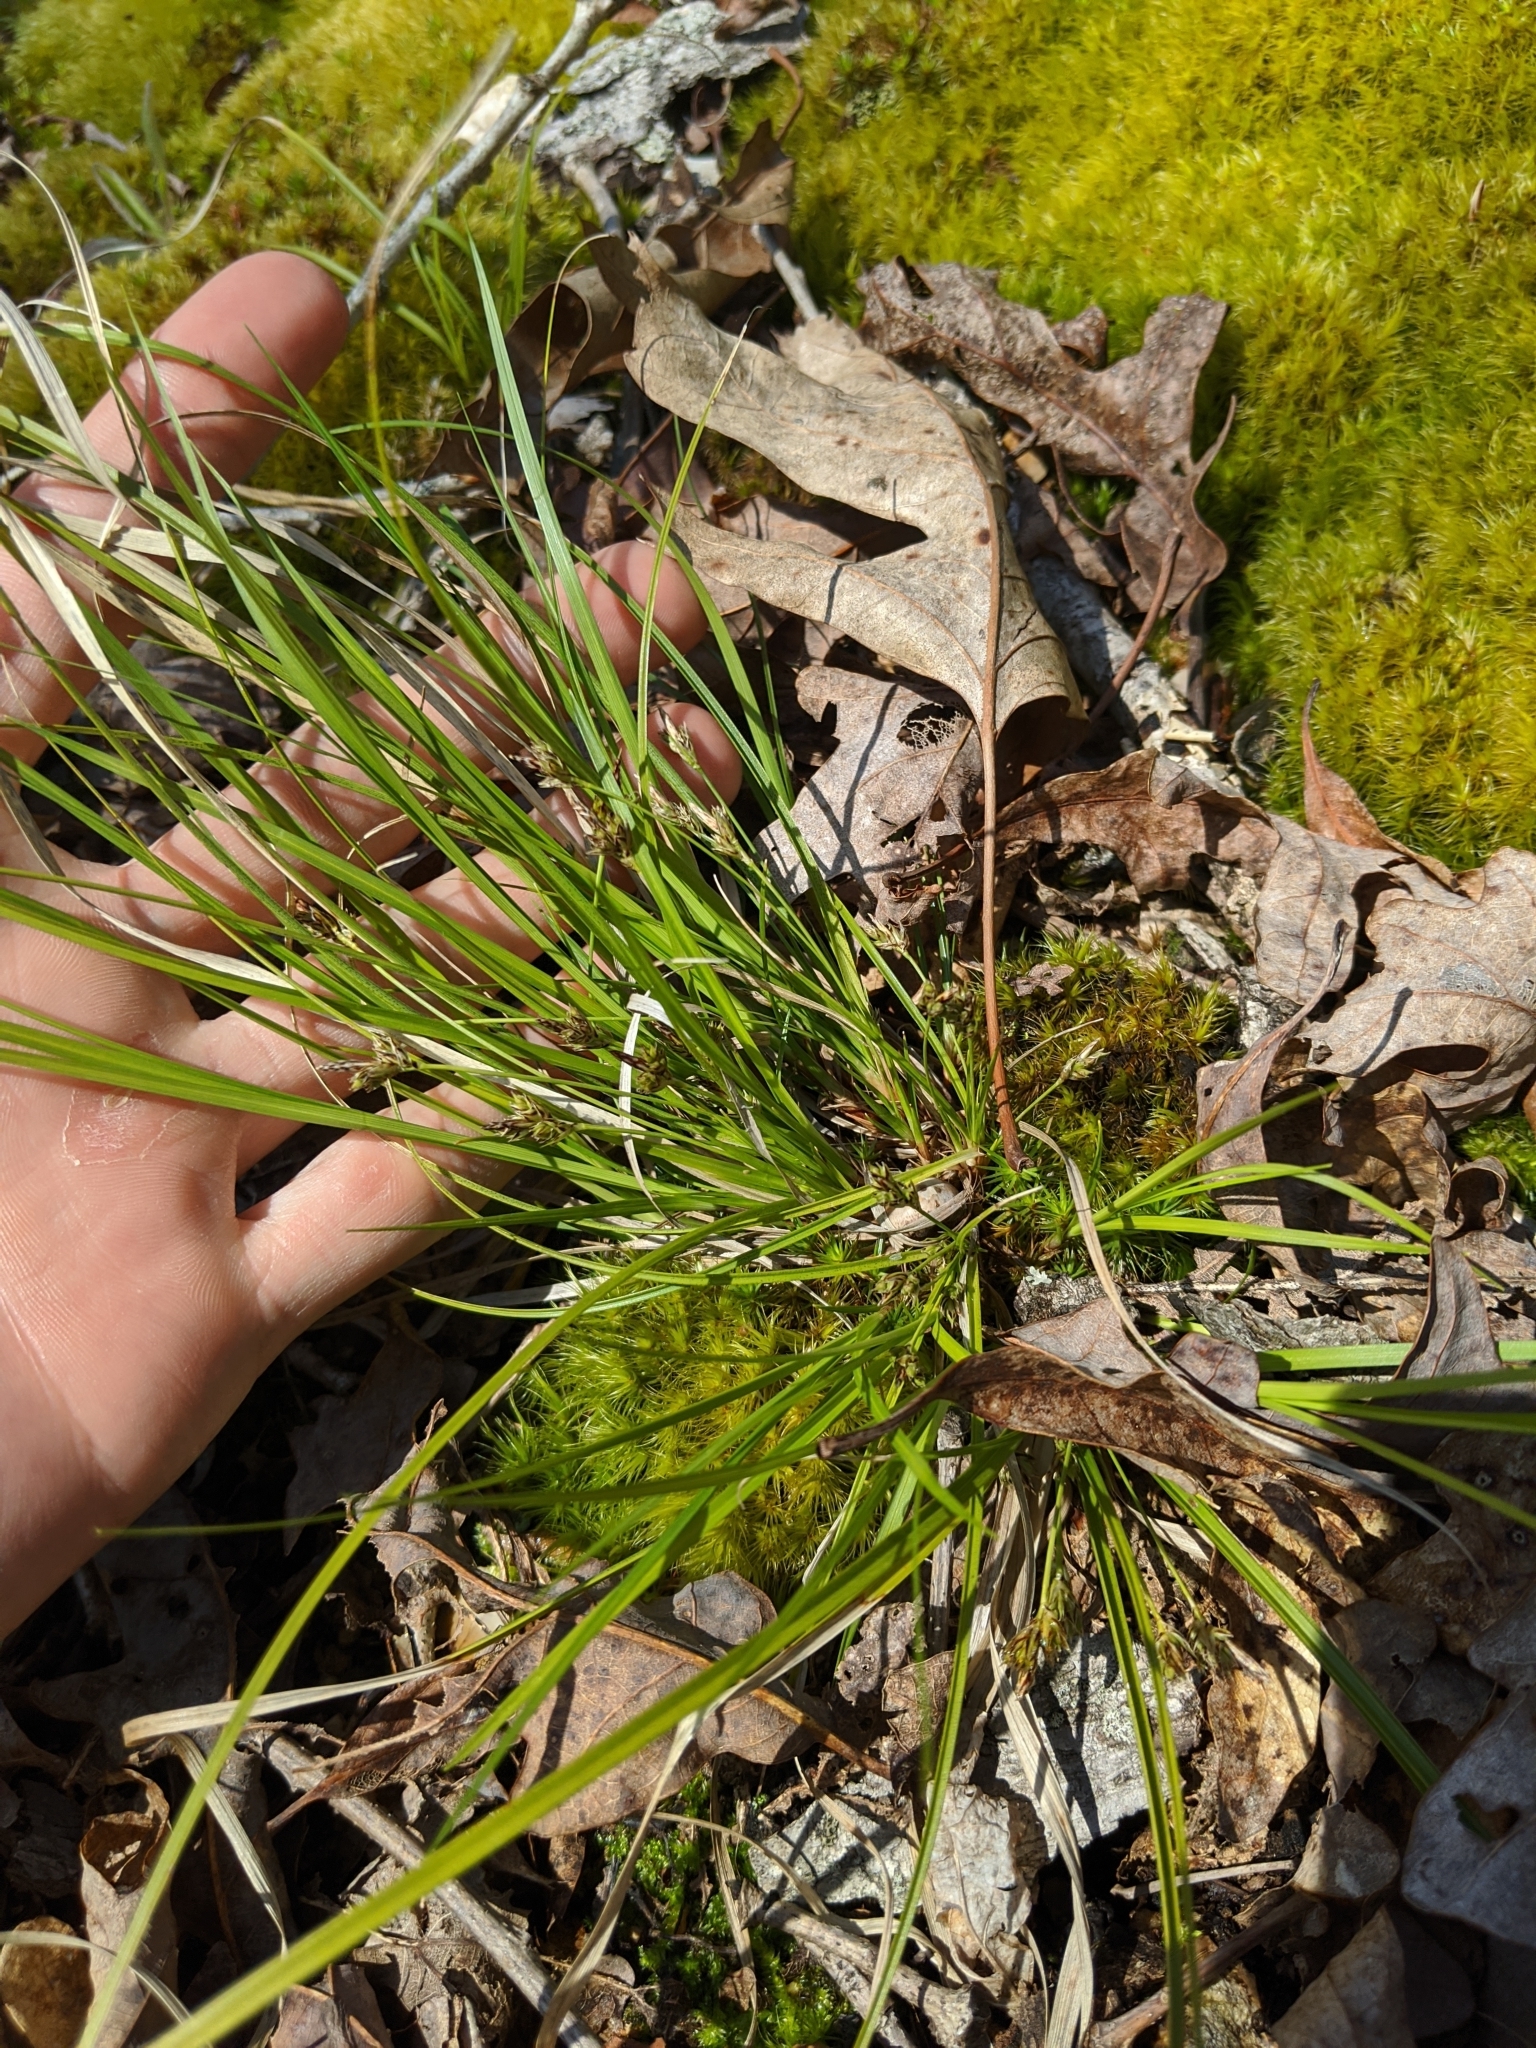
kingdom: Plantae
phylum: Tracheophyta
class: Liliopsida
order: Poales
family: Cyperaceae
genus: Carex
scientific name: Carex umbellata
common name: Early oak sedge
